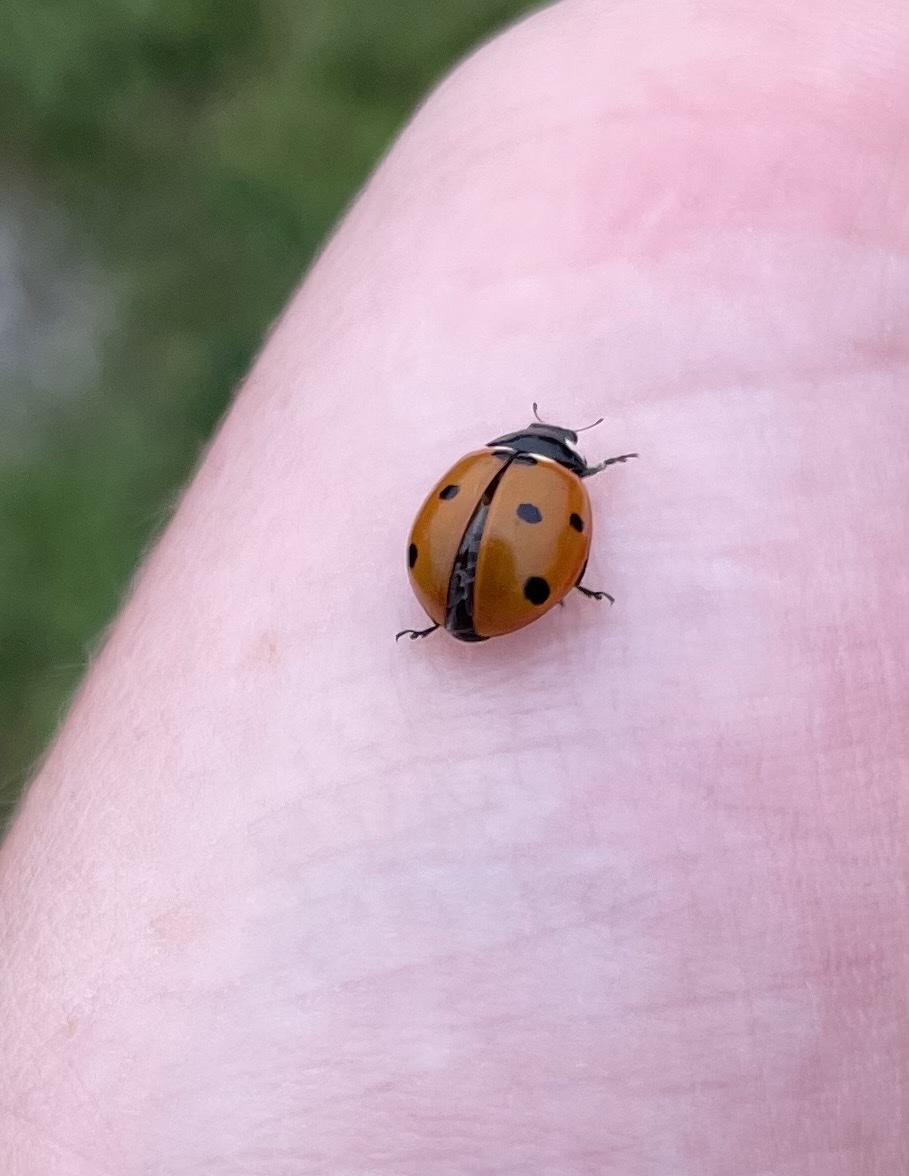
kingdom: Animalia
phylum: Arthropoda
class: Insecta
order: Coleoptera
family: Coccinellidae
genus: Coccinella
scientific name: Coccinella septempunctata
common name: Sevenspotted lady beetle
